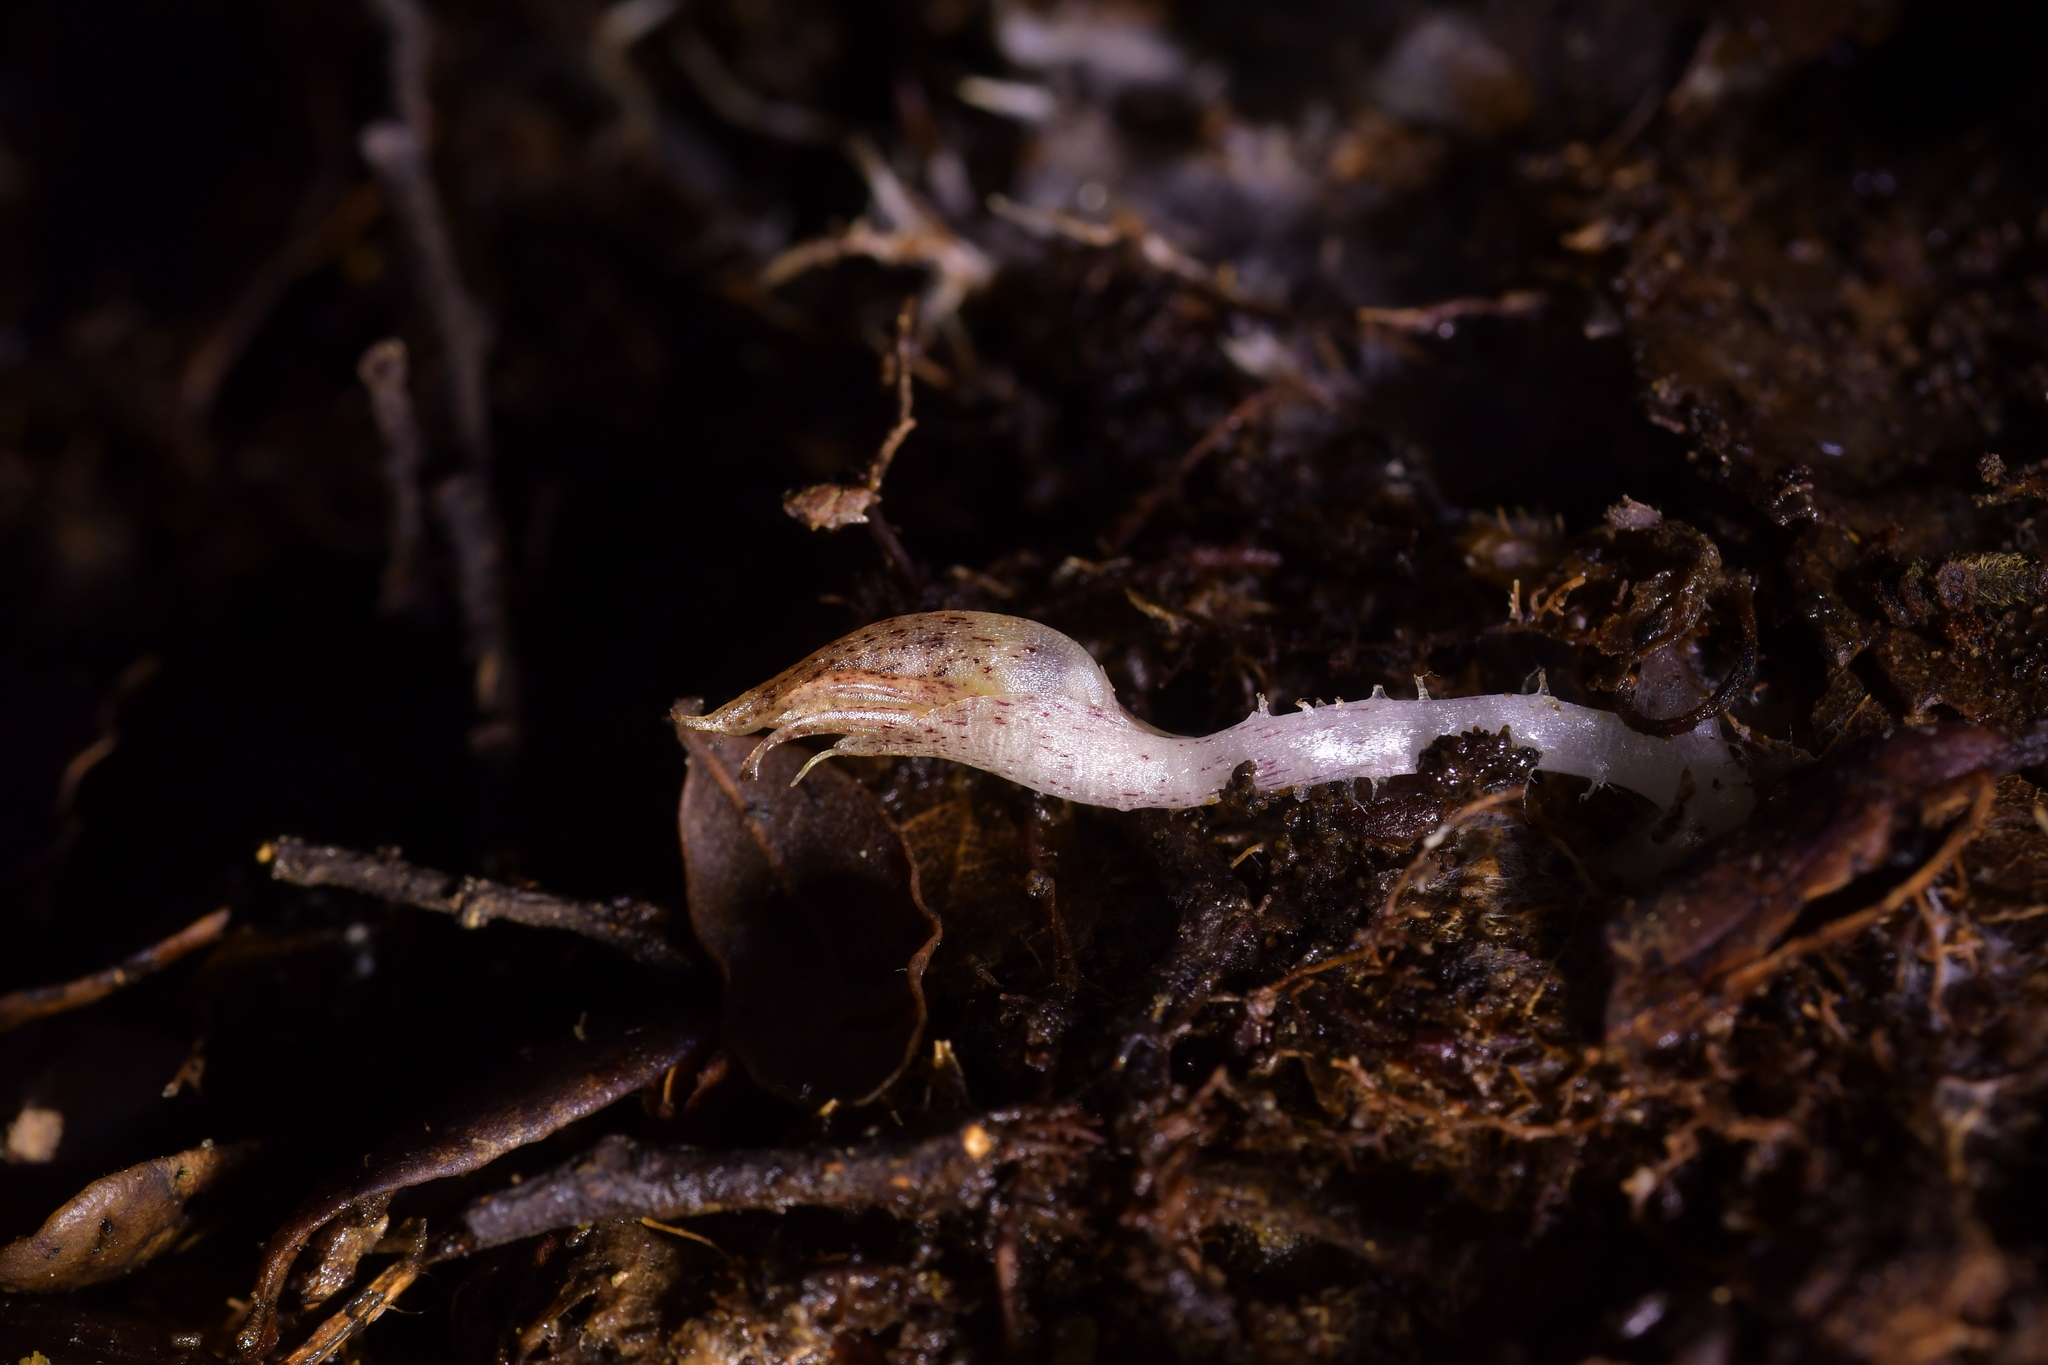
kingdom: Plantae
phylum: Tracheophyta
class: Liliopsida
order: Asparagales
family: Orchidaceae
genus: Corybas
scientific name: Corybas cryptanthus
